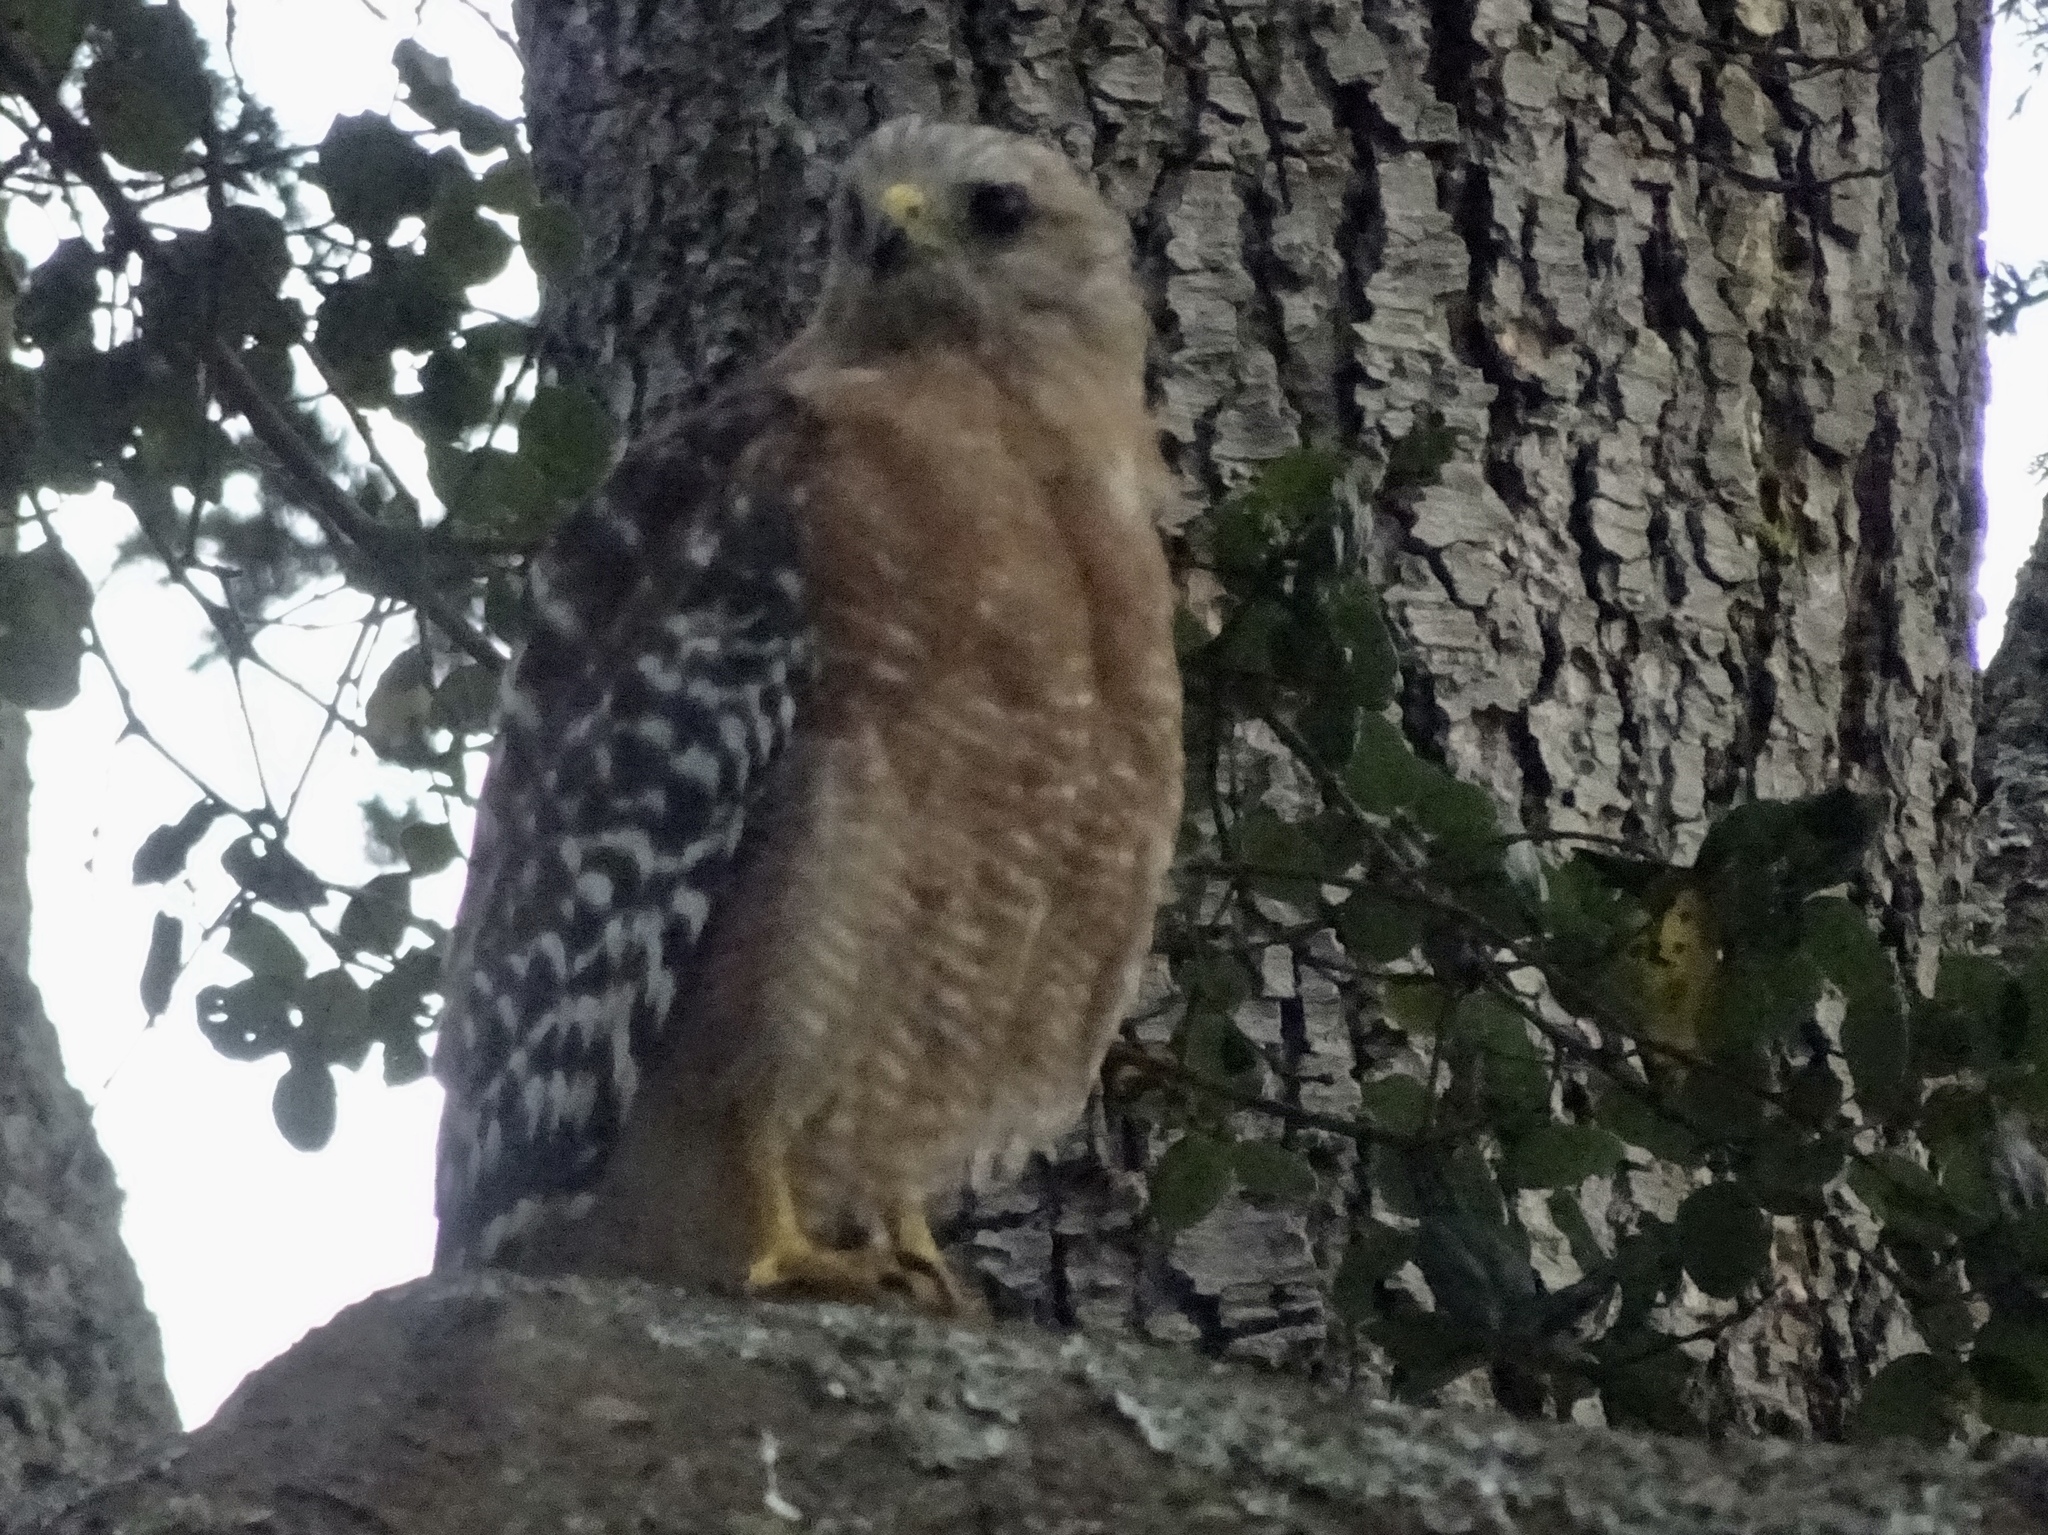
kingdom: Animalia
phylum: Chordata
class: Aves
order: Accipitriformes
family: Accipitridae
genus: Buteo
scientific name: Buteo lineatus
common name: Red-shouldered hawk
